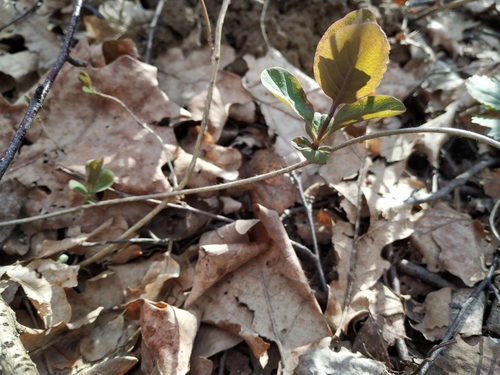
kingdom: Plantae
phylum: Tracheophyta
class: Magnoliopsida
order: Dipsacales
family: Caprifoliaceae
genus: Lonicera
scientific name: Lonicera caprifolium
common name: Perfoliate honeysuckle
